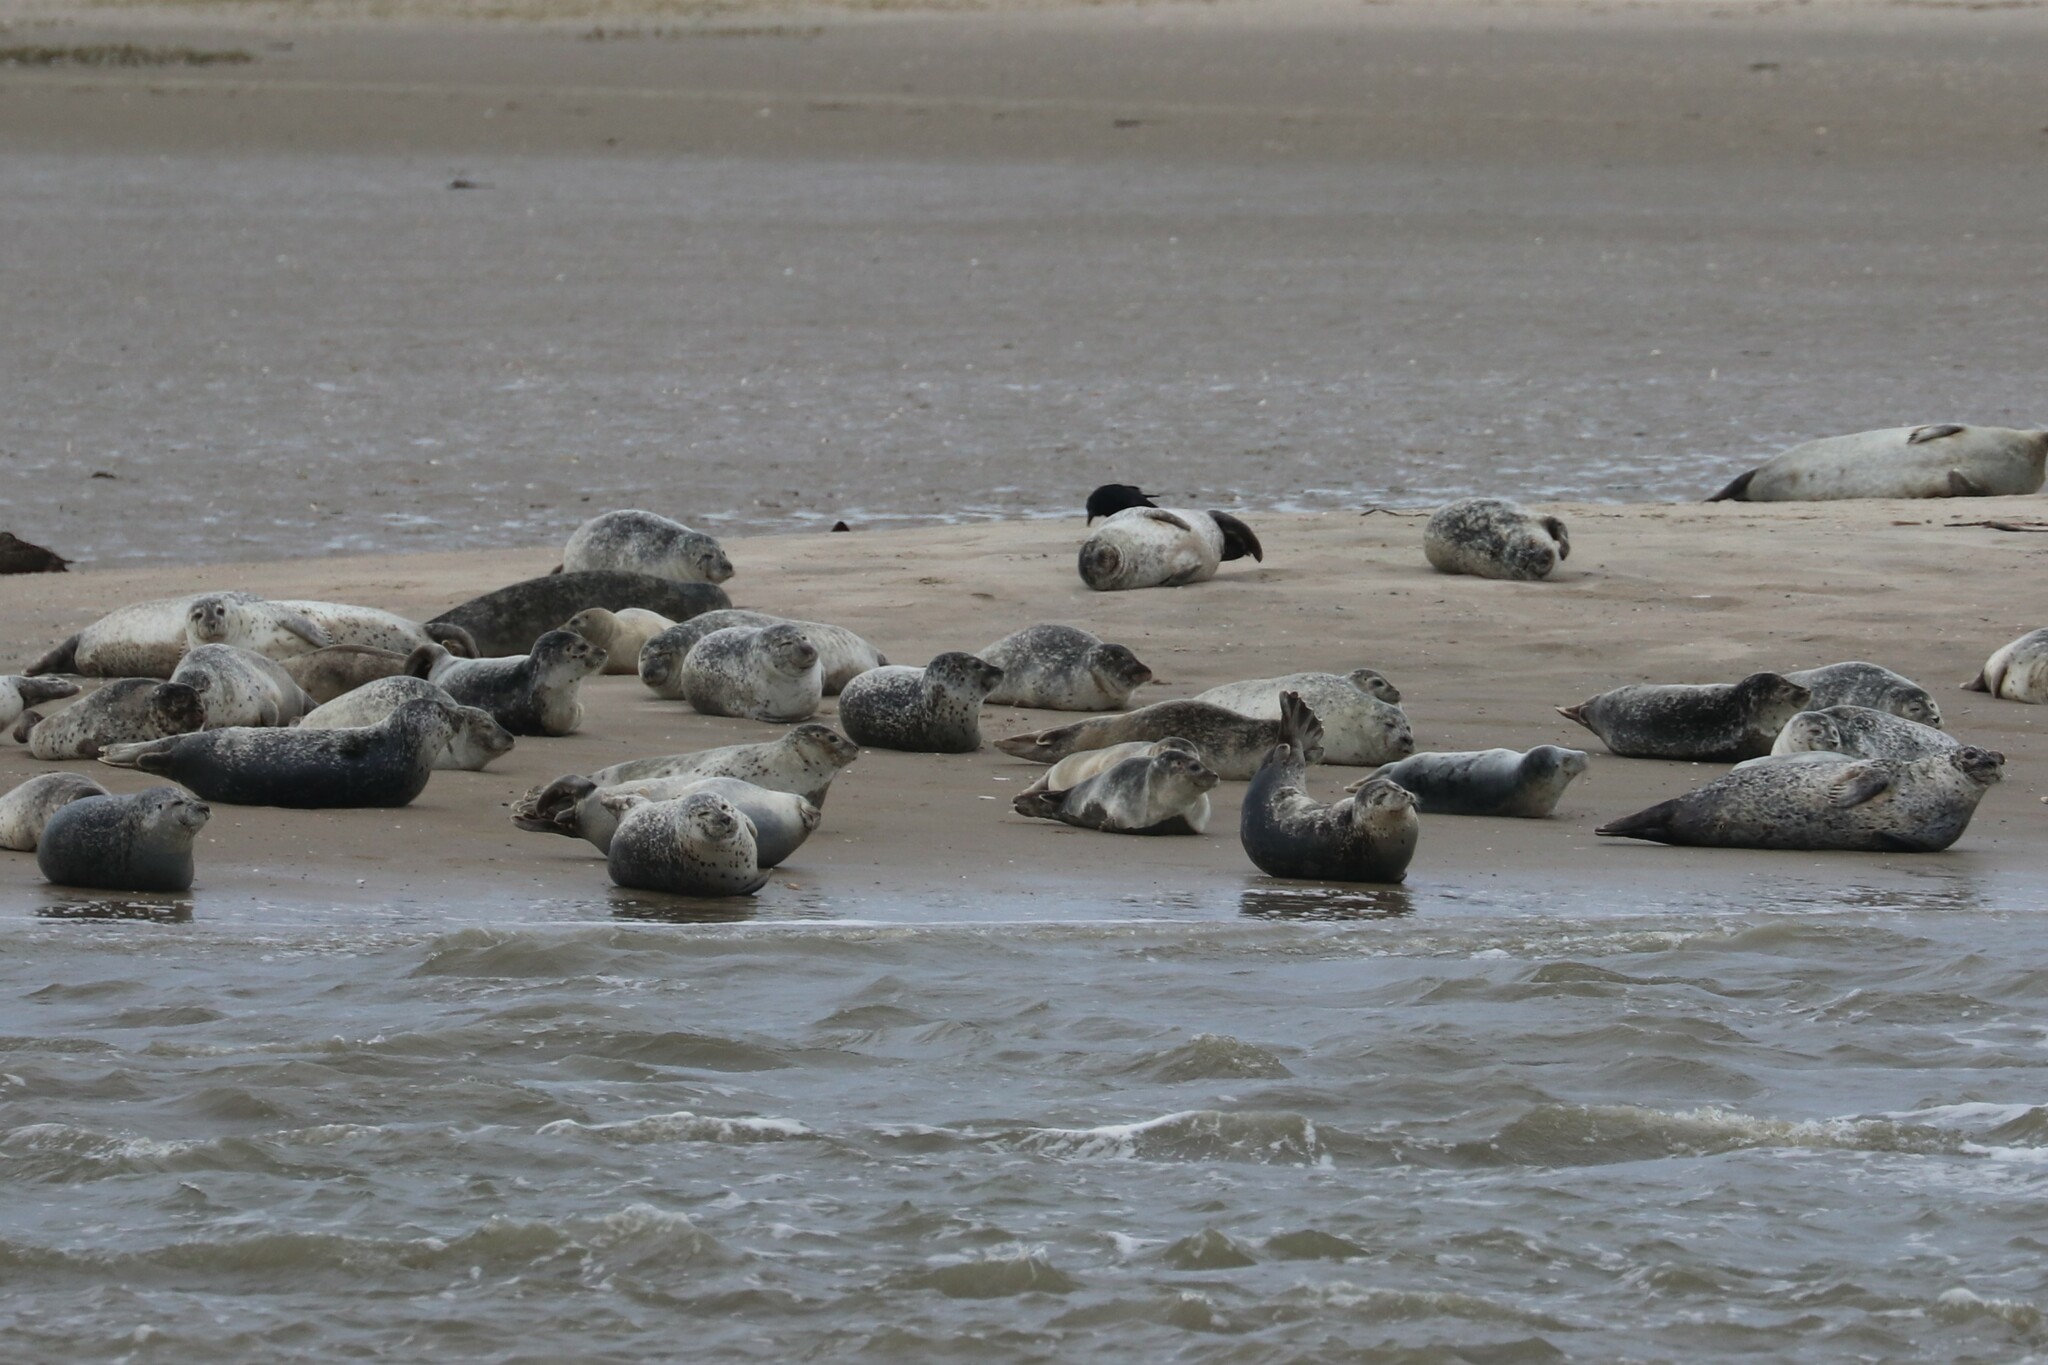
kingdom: Animalia
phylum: Chordata
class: Mammalia
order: Carnivora
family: Phocidae
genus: Phoca
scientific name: Phoca vitulina
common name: Harbor seal
